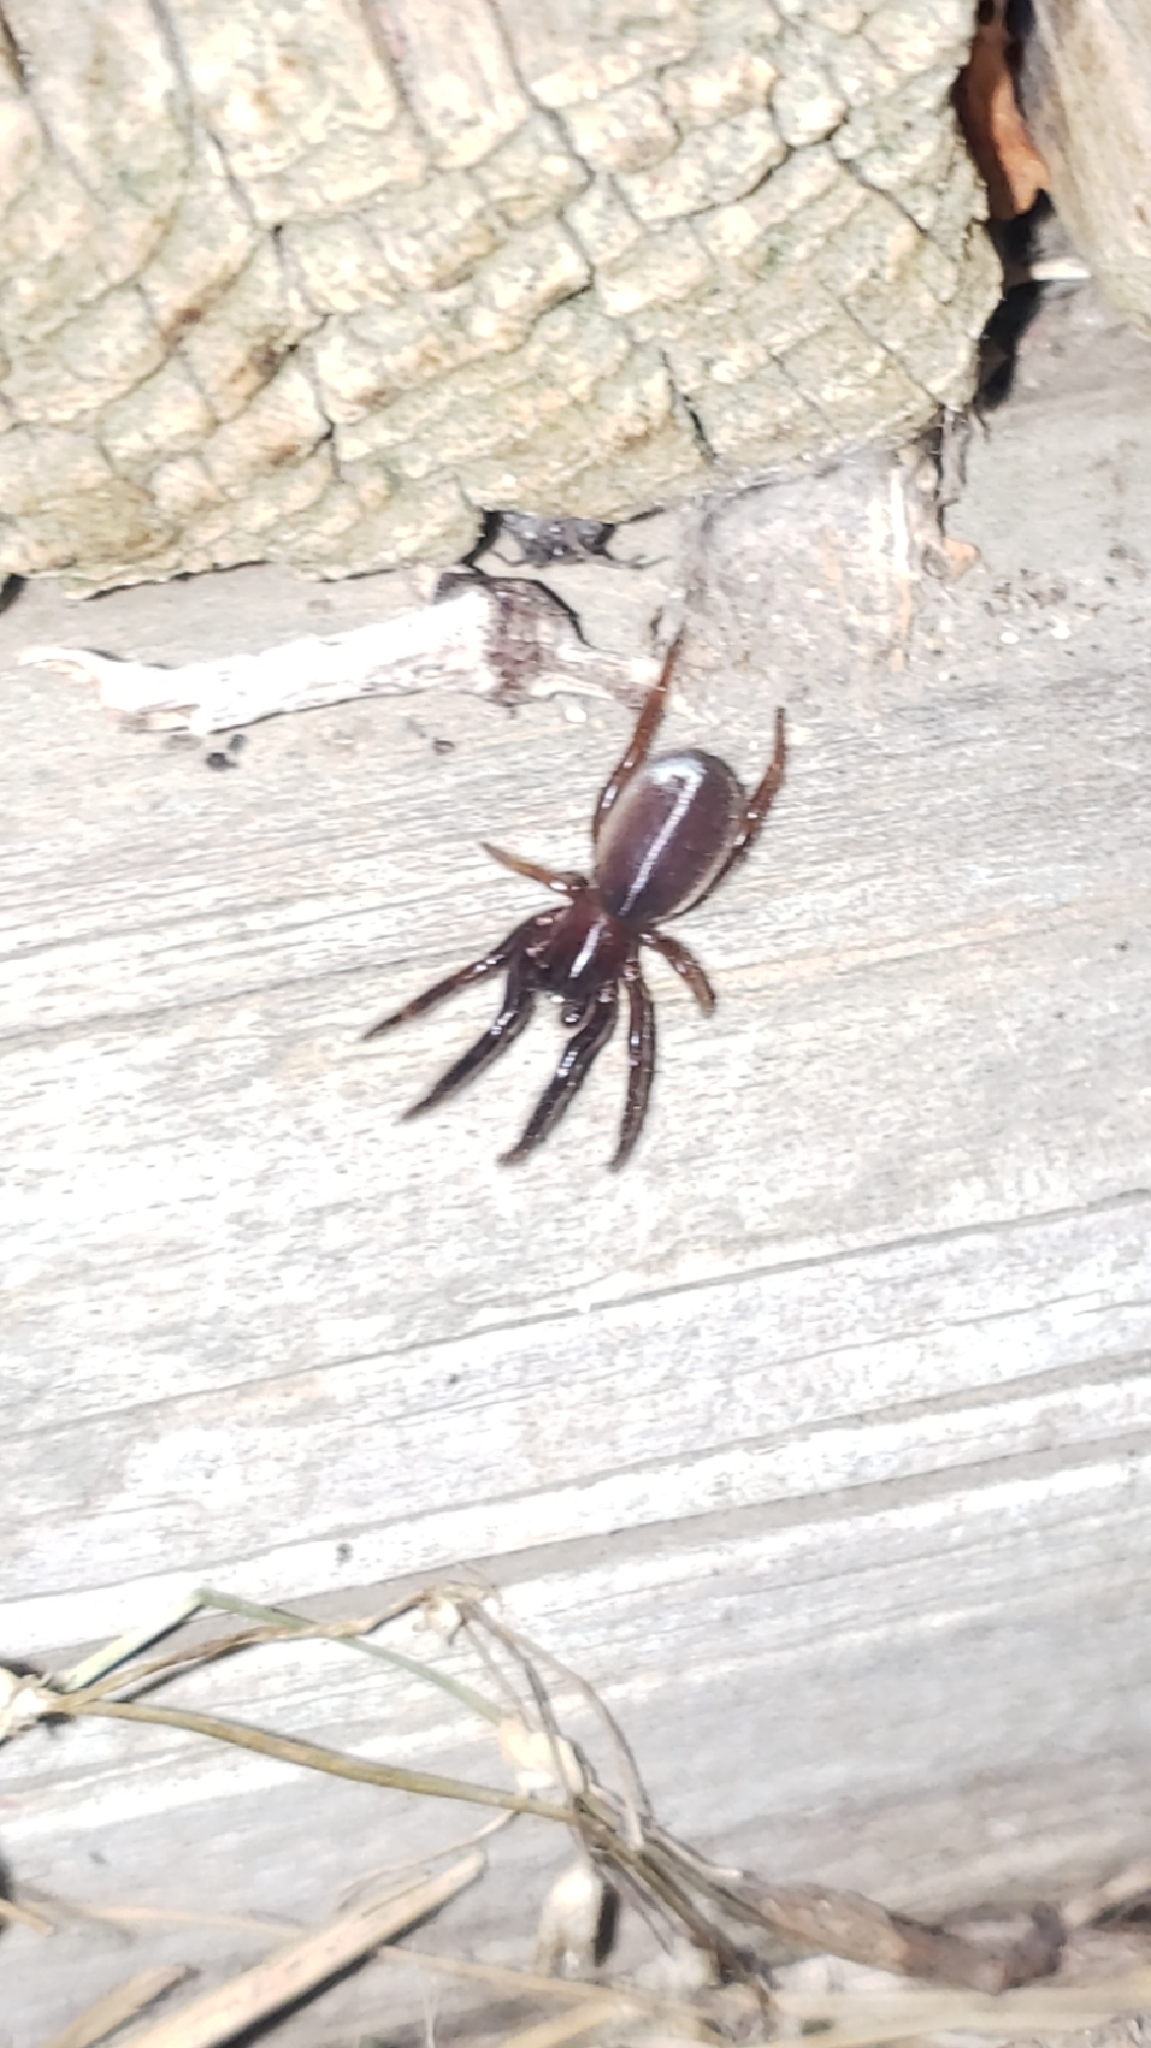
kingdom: Animalia
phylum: Arthropoda
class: Arachnida
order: Araneae
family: Segestriidae
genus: Ariadna
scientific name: Ariadna bicolor
